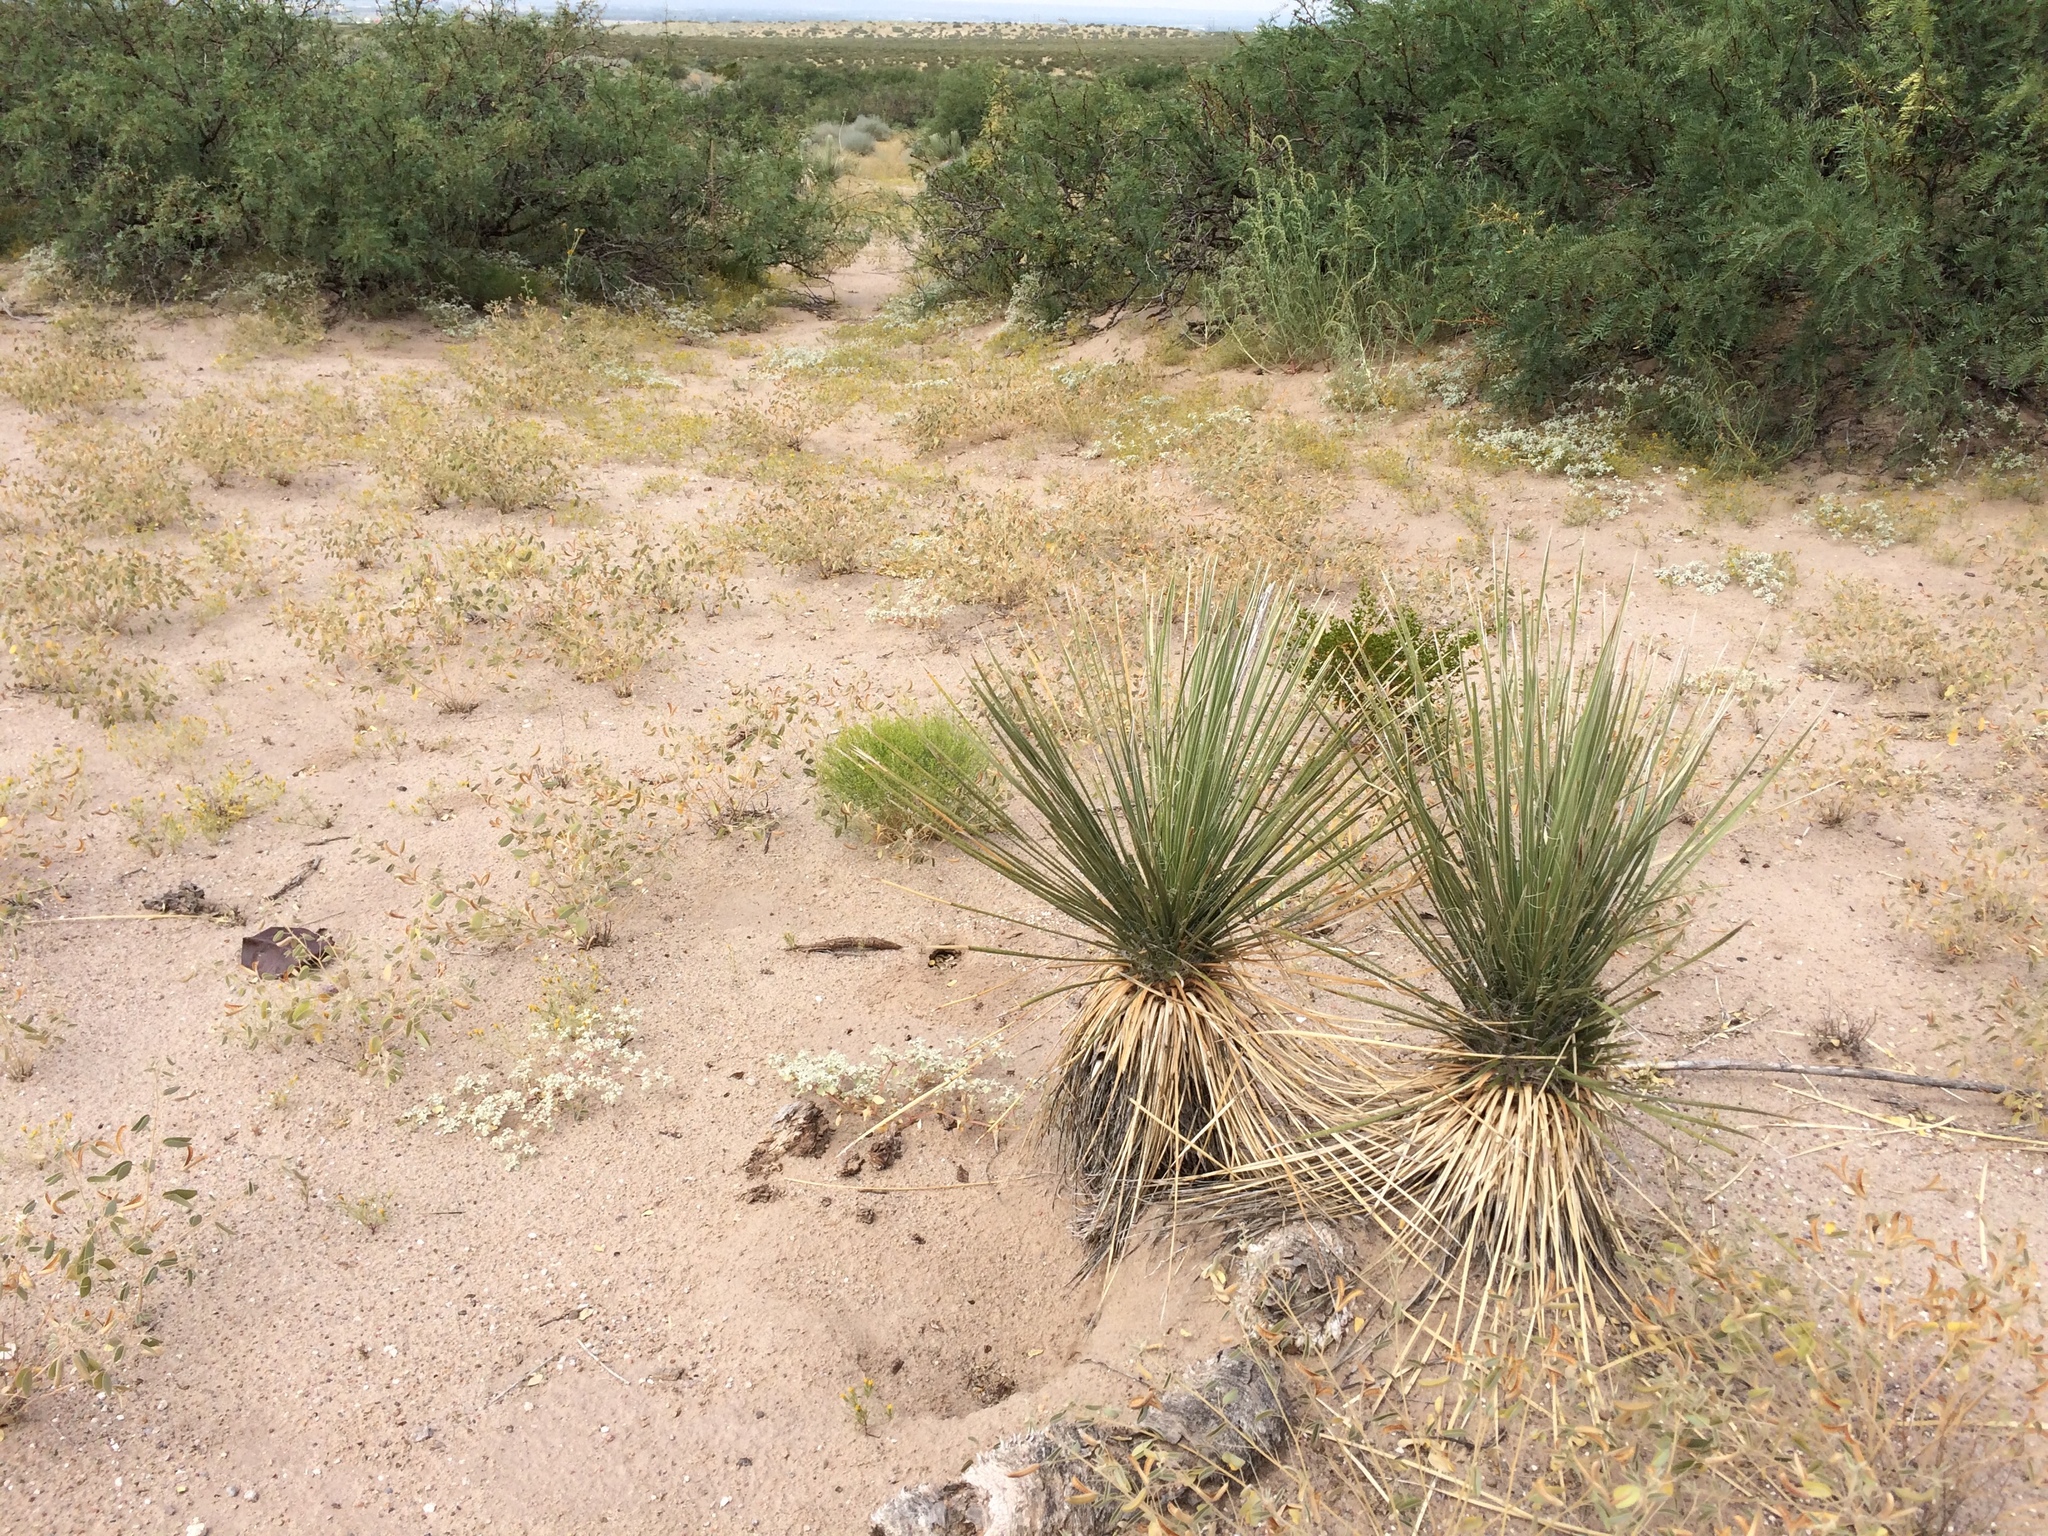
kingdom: Plantae
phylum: Tracheophyta
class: Liliopsida
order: Asparagales
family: Asparagaceae
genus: Yucca
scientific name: Yucca elata
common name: Palmella
